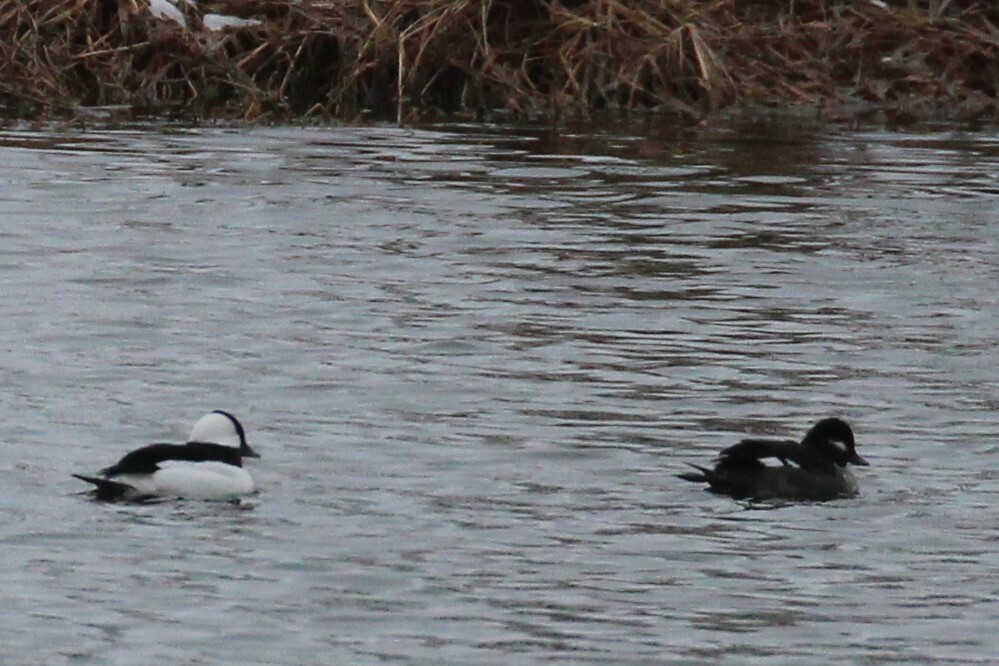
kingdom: Animalia
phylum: Chordata
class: Aves
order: Anseriformes
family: Anatidae
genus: Bucephala
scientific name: Bucephala albeola
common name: Bufflehead
